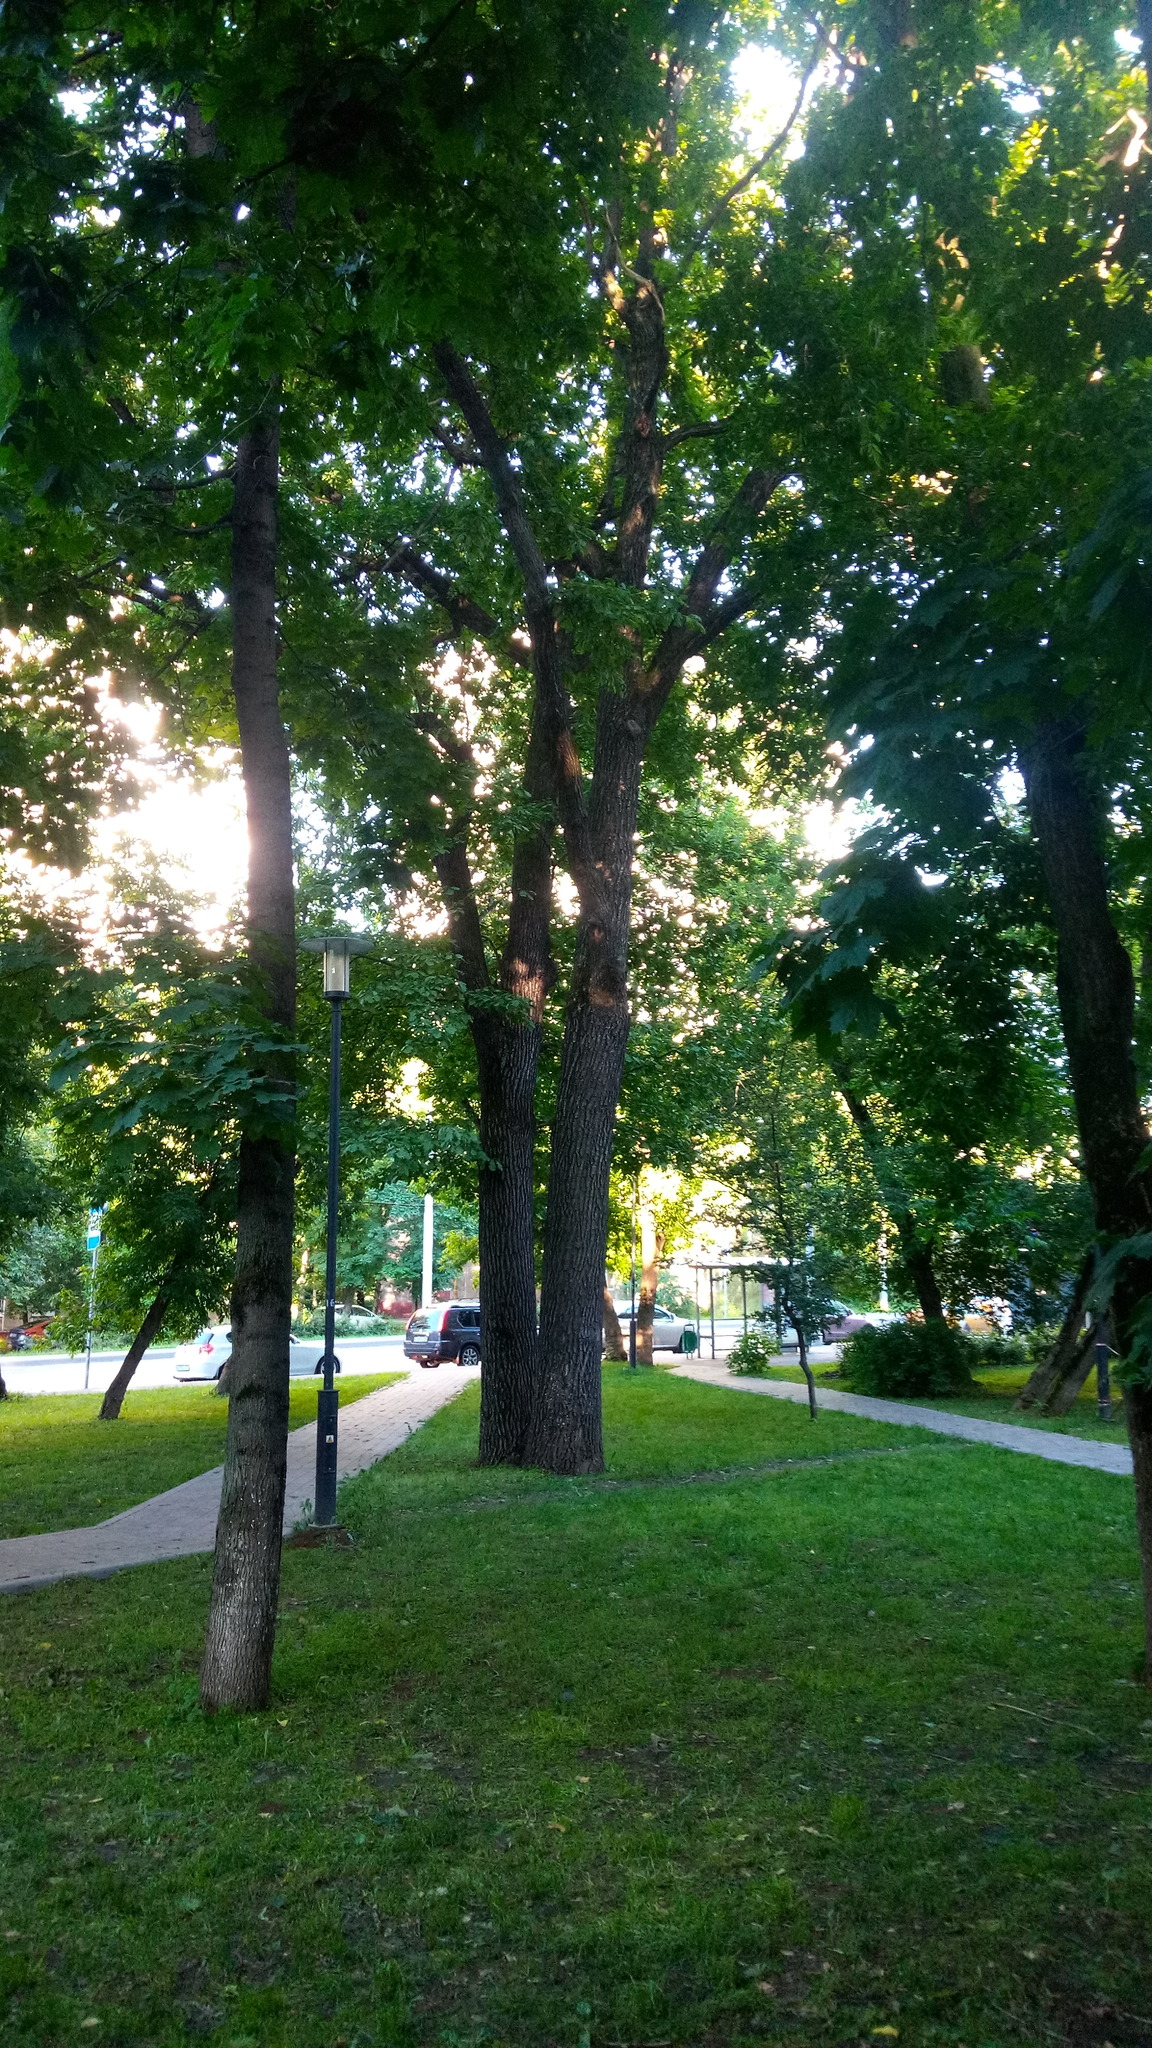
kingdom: Plantae
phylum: Tracheophyta
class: Magnoliopsida
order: Fagales
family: Fagaceae
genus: Quercus
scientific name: Quercus robur
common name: Pedunculate oak
